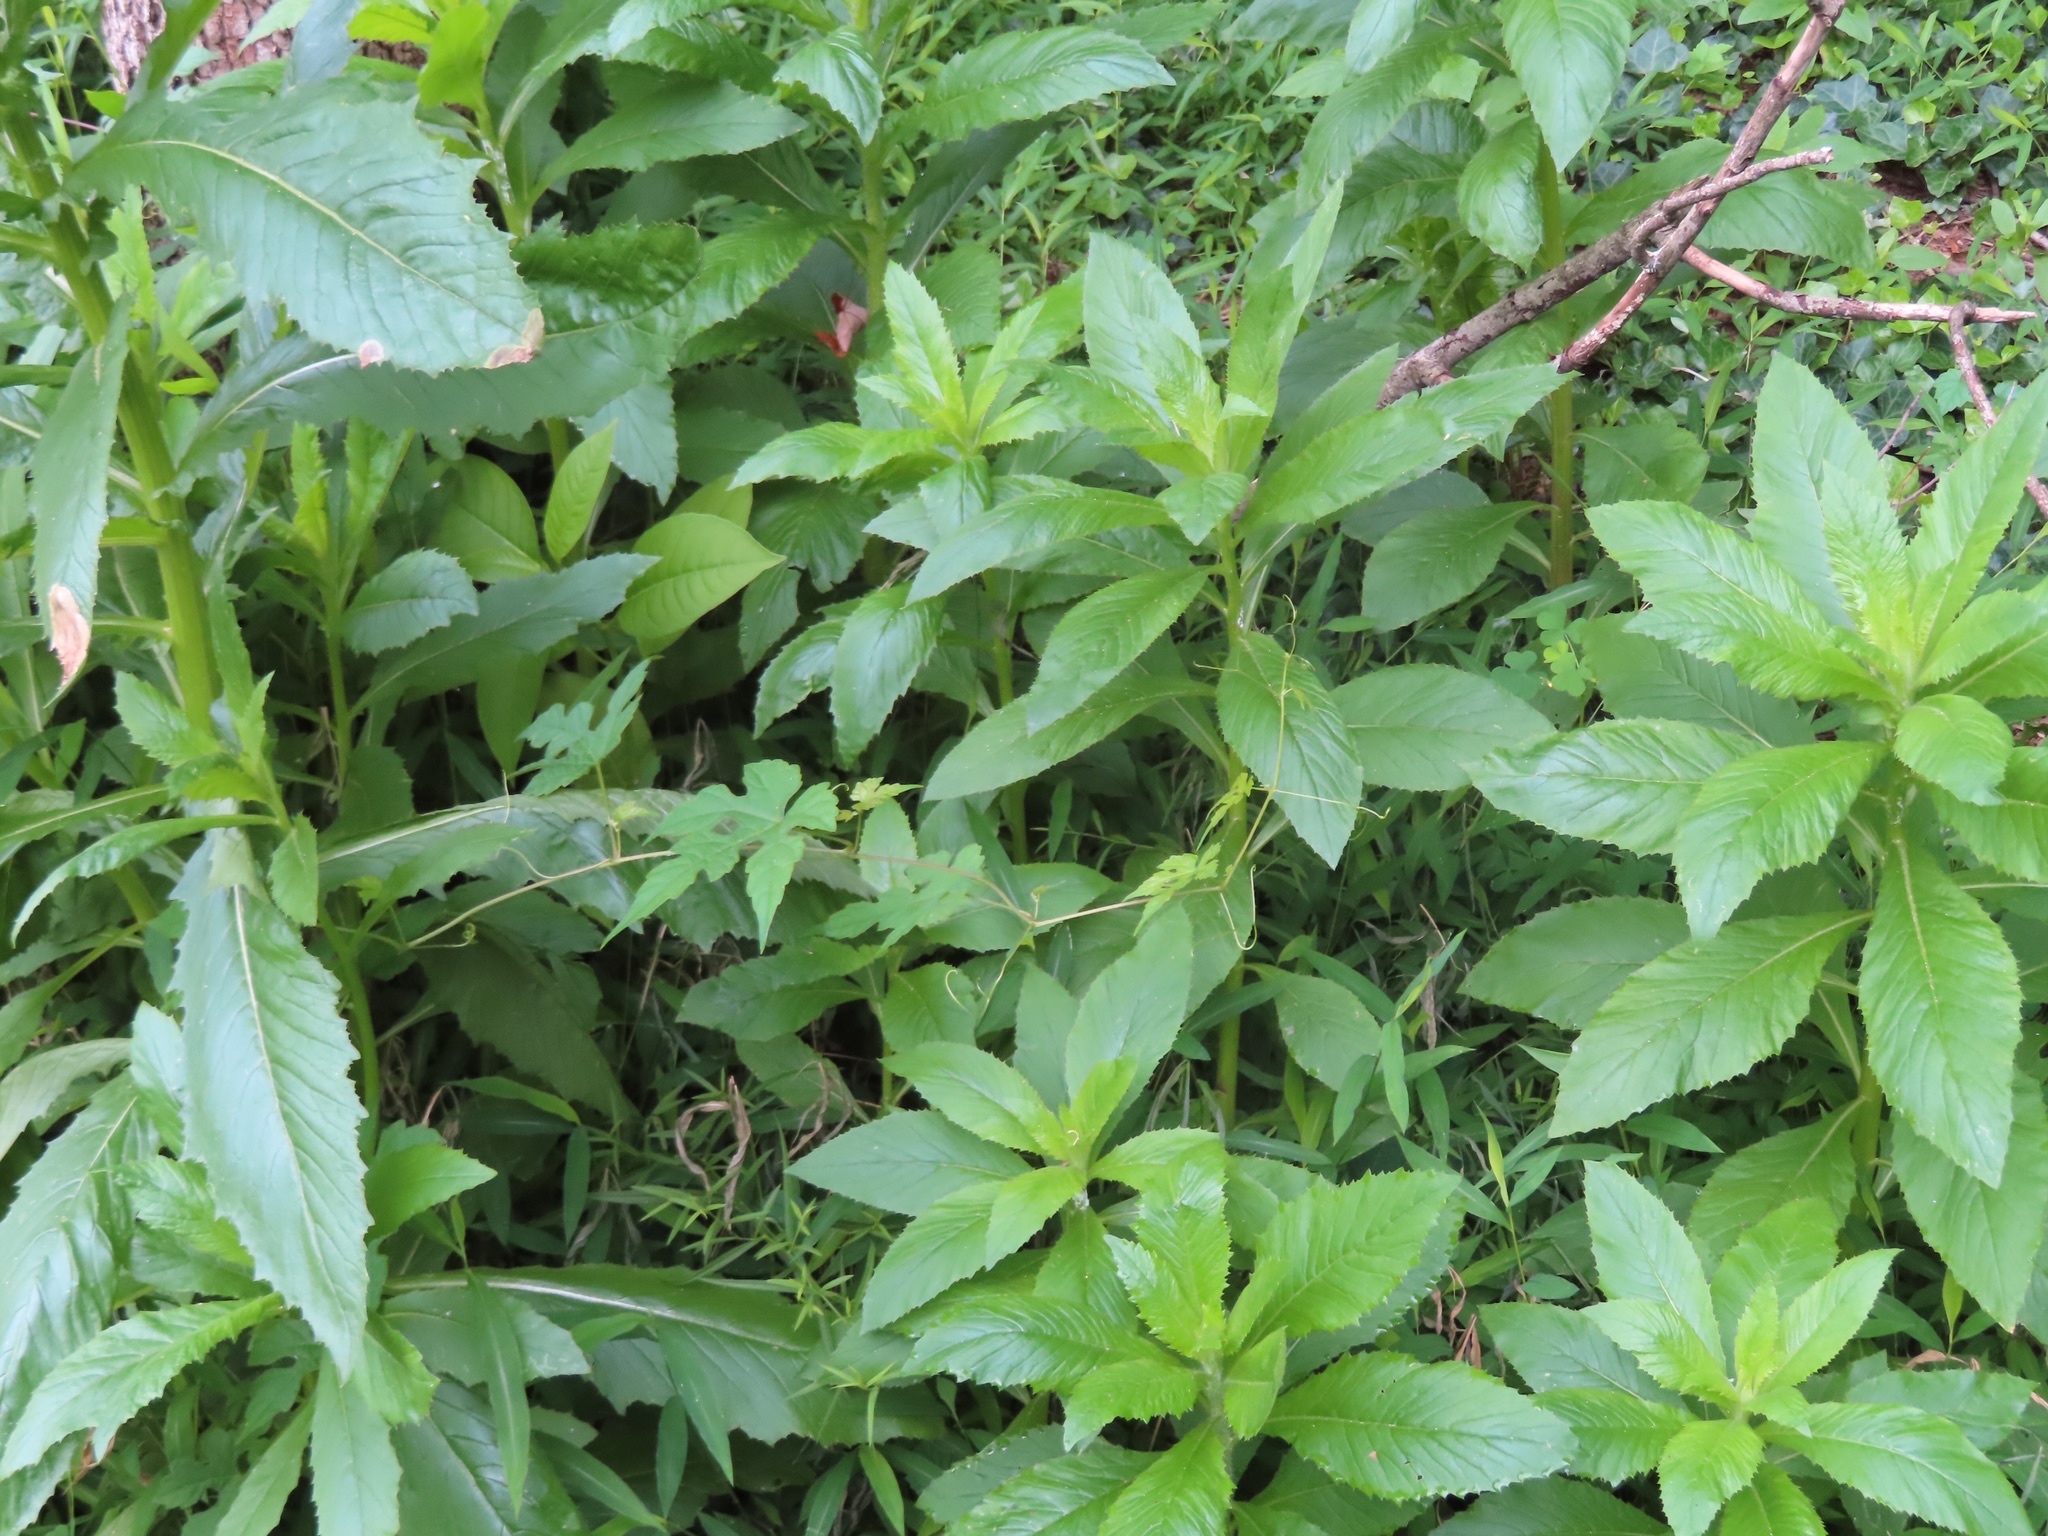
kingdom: Plantae
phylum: Tracheophyta
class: Magnoliopsida
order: Asterales
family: Asteraceae
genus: Erechtites
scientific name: Erechtites hieraciifolius
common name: American burnweed
